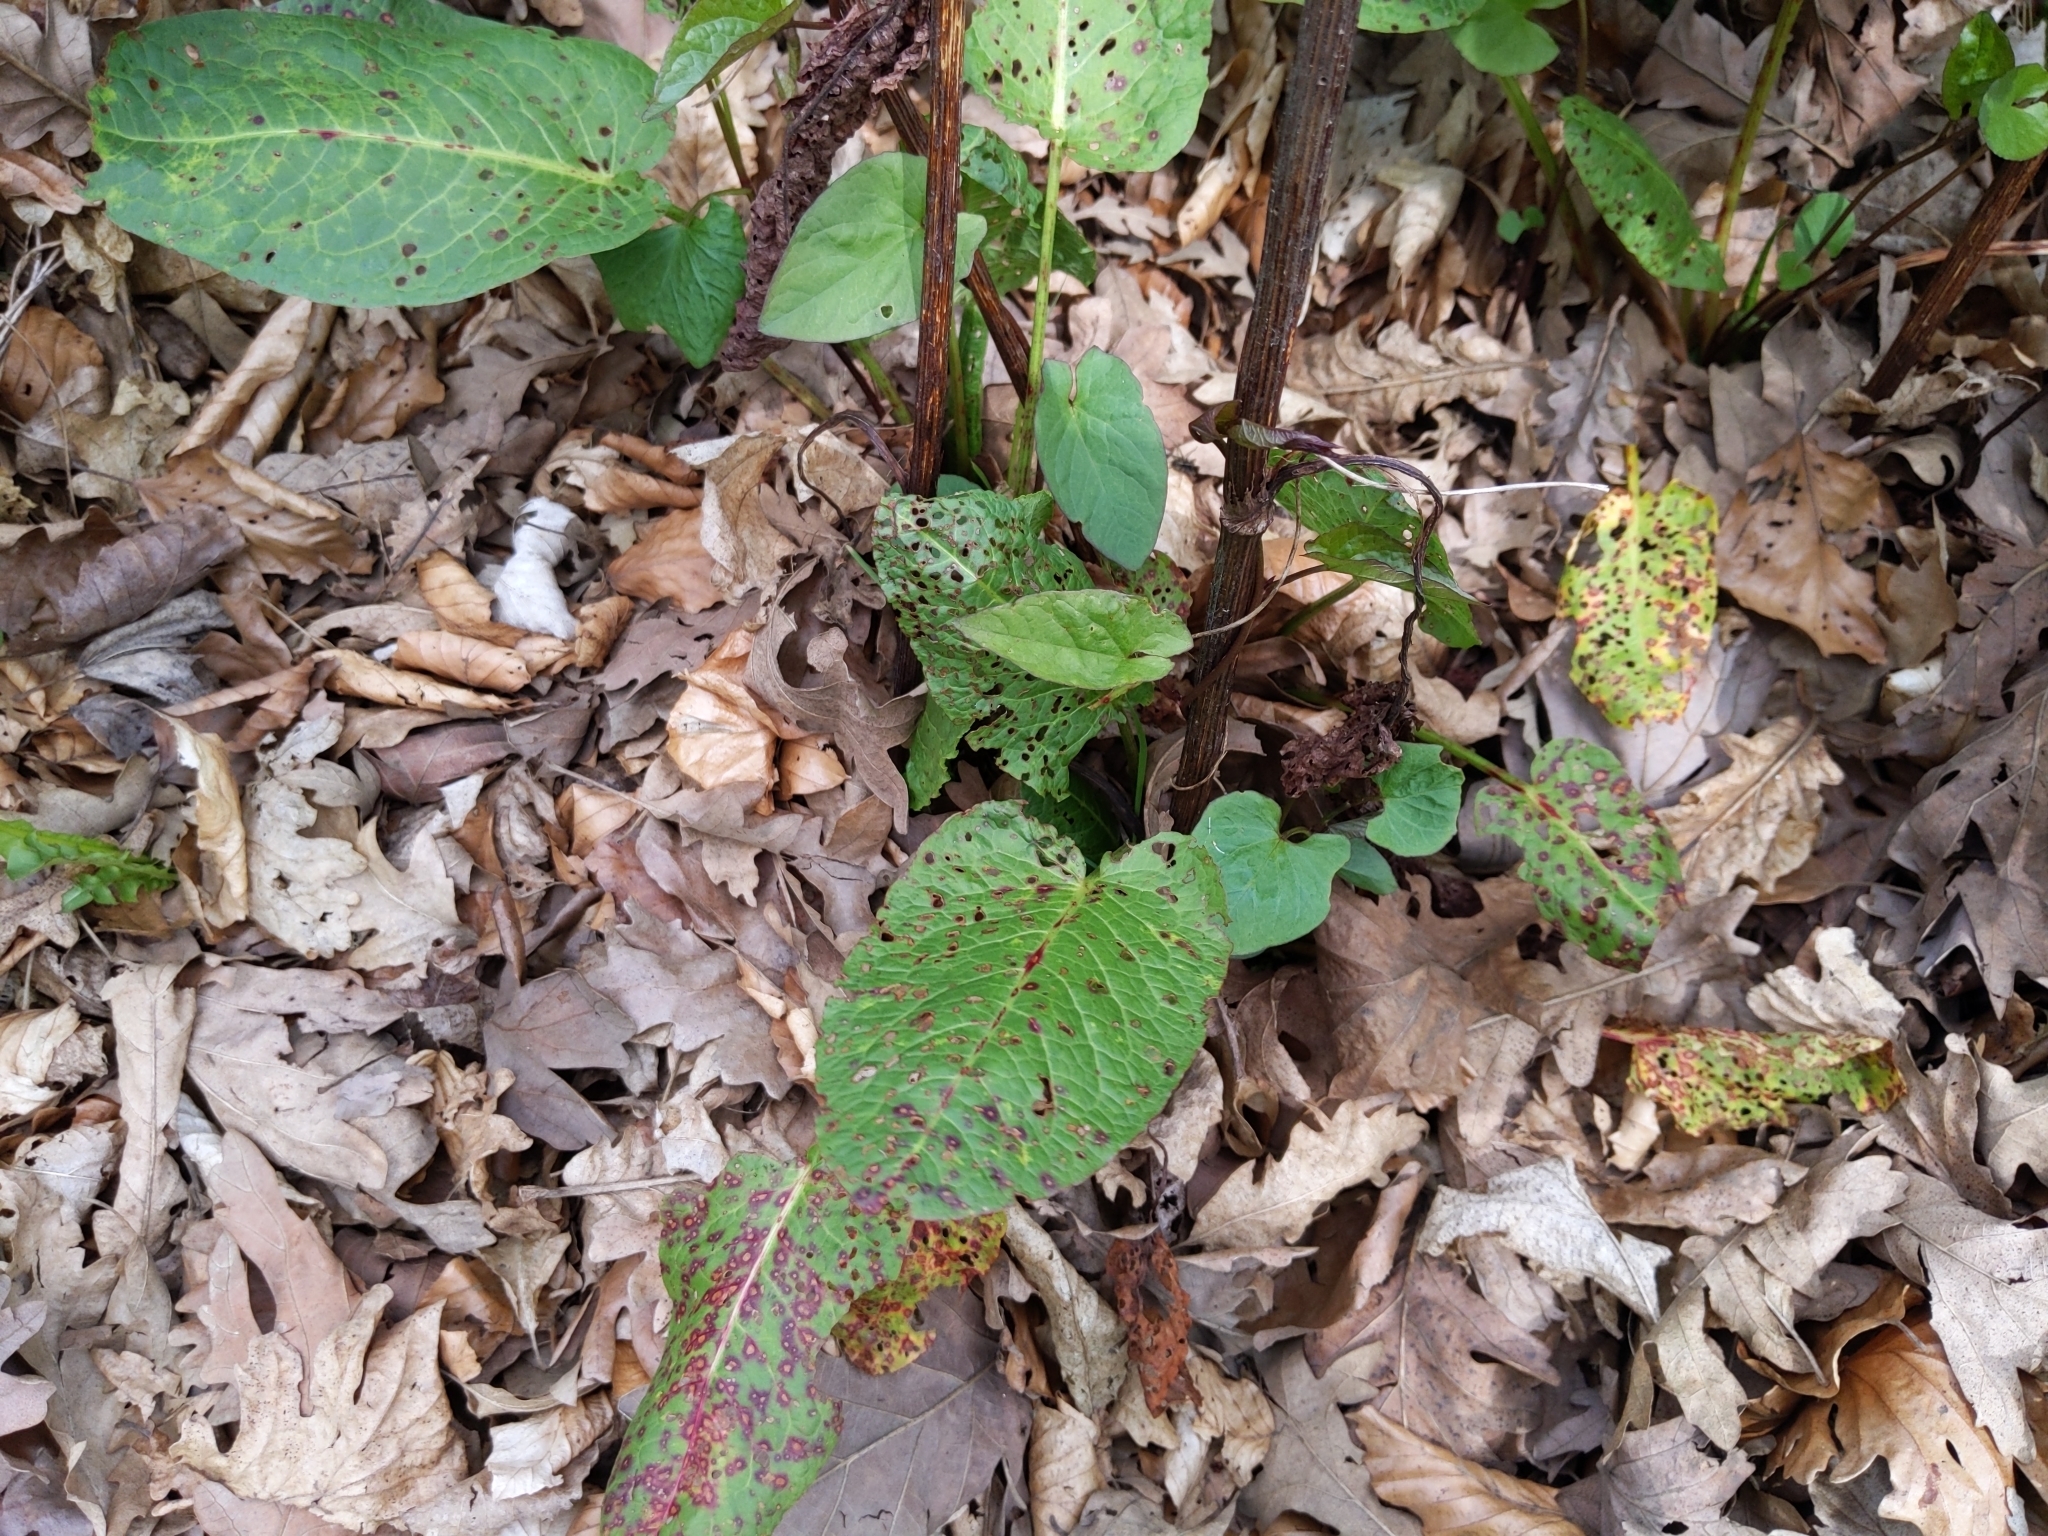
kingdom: Fungi
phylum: Ascomycota
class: Dothideomycetes
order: Mycosphaerellales
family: Mycosphaerellaceae
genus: Ramularia
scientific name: Ramularia rubella
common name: Red dock spot
